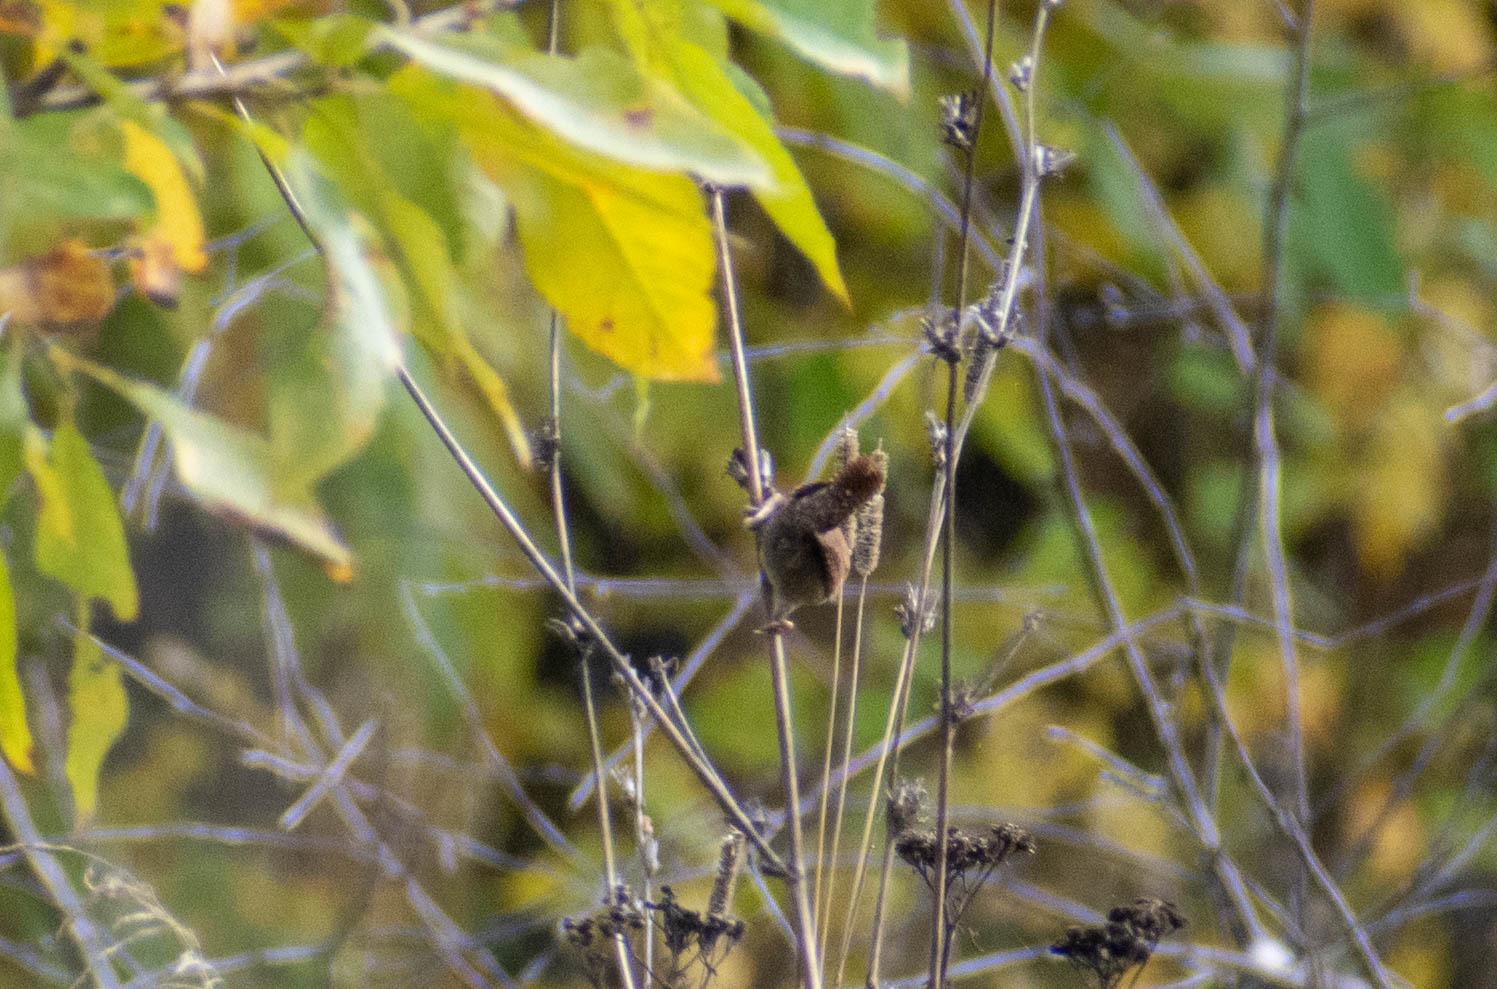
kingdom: Animalia
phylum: Chordata
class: Aves
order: Passeriformes
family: Troglodytidae
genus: Troglodytes
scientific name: Troglodytes troglodytes
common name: Eurasian wren
